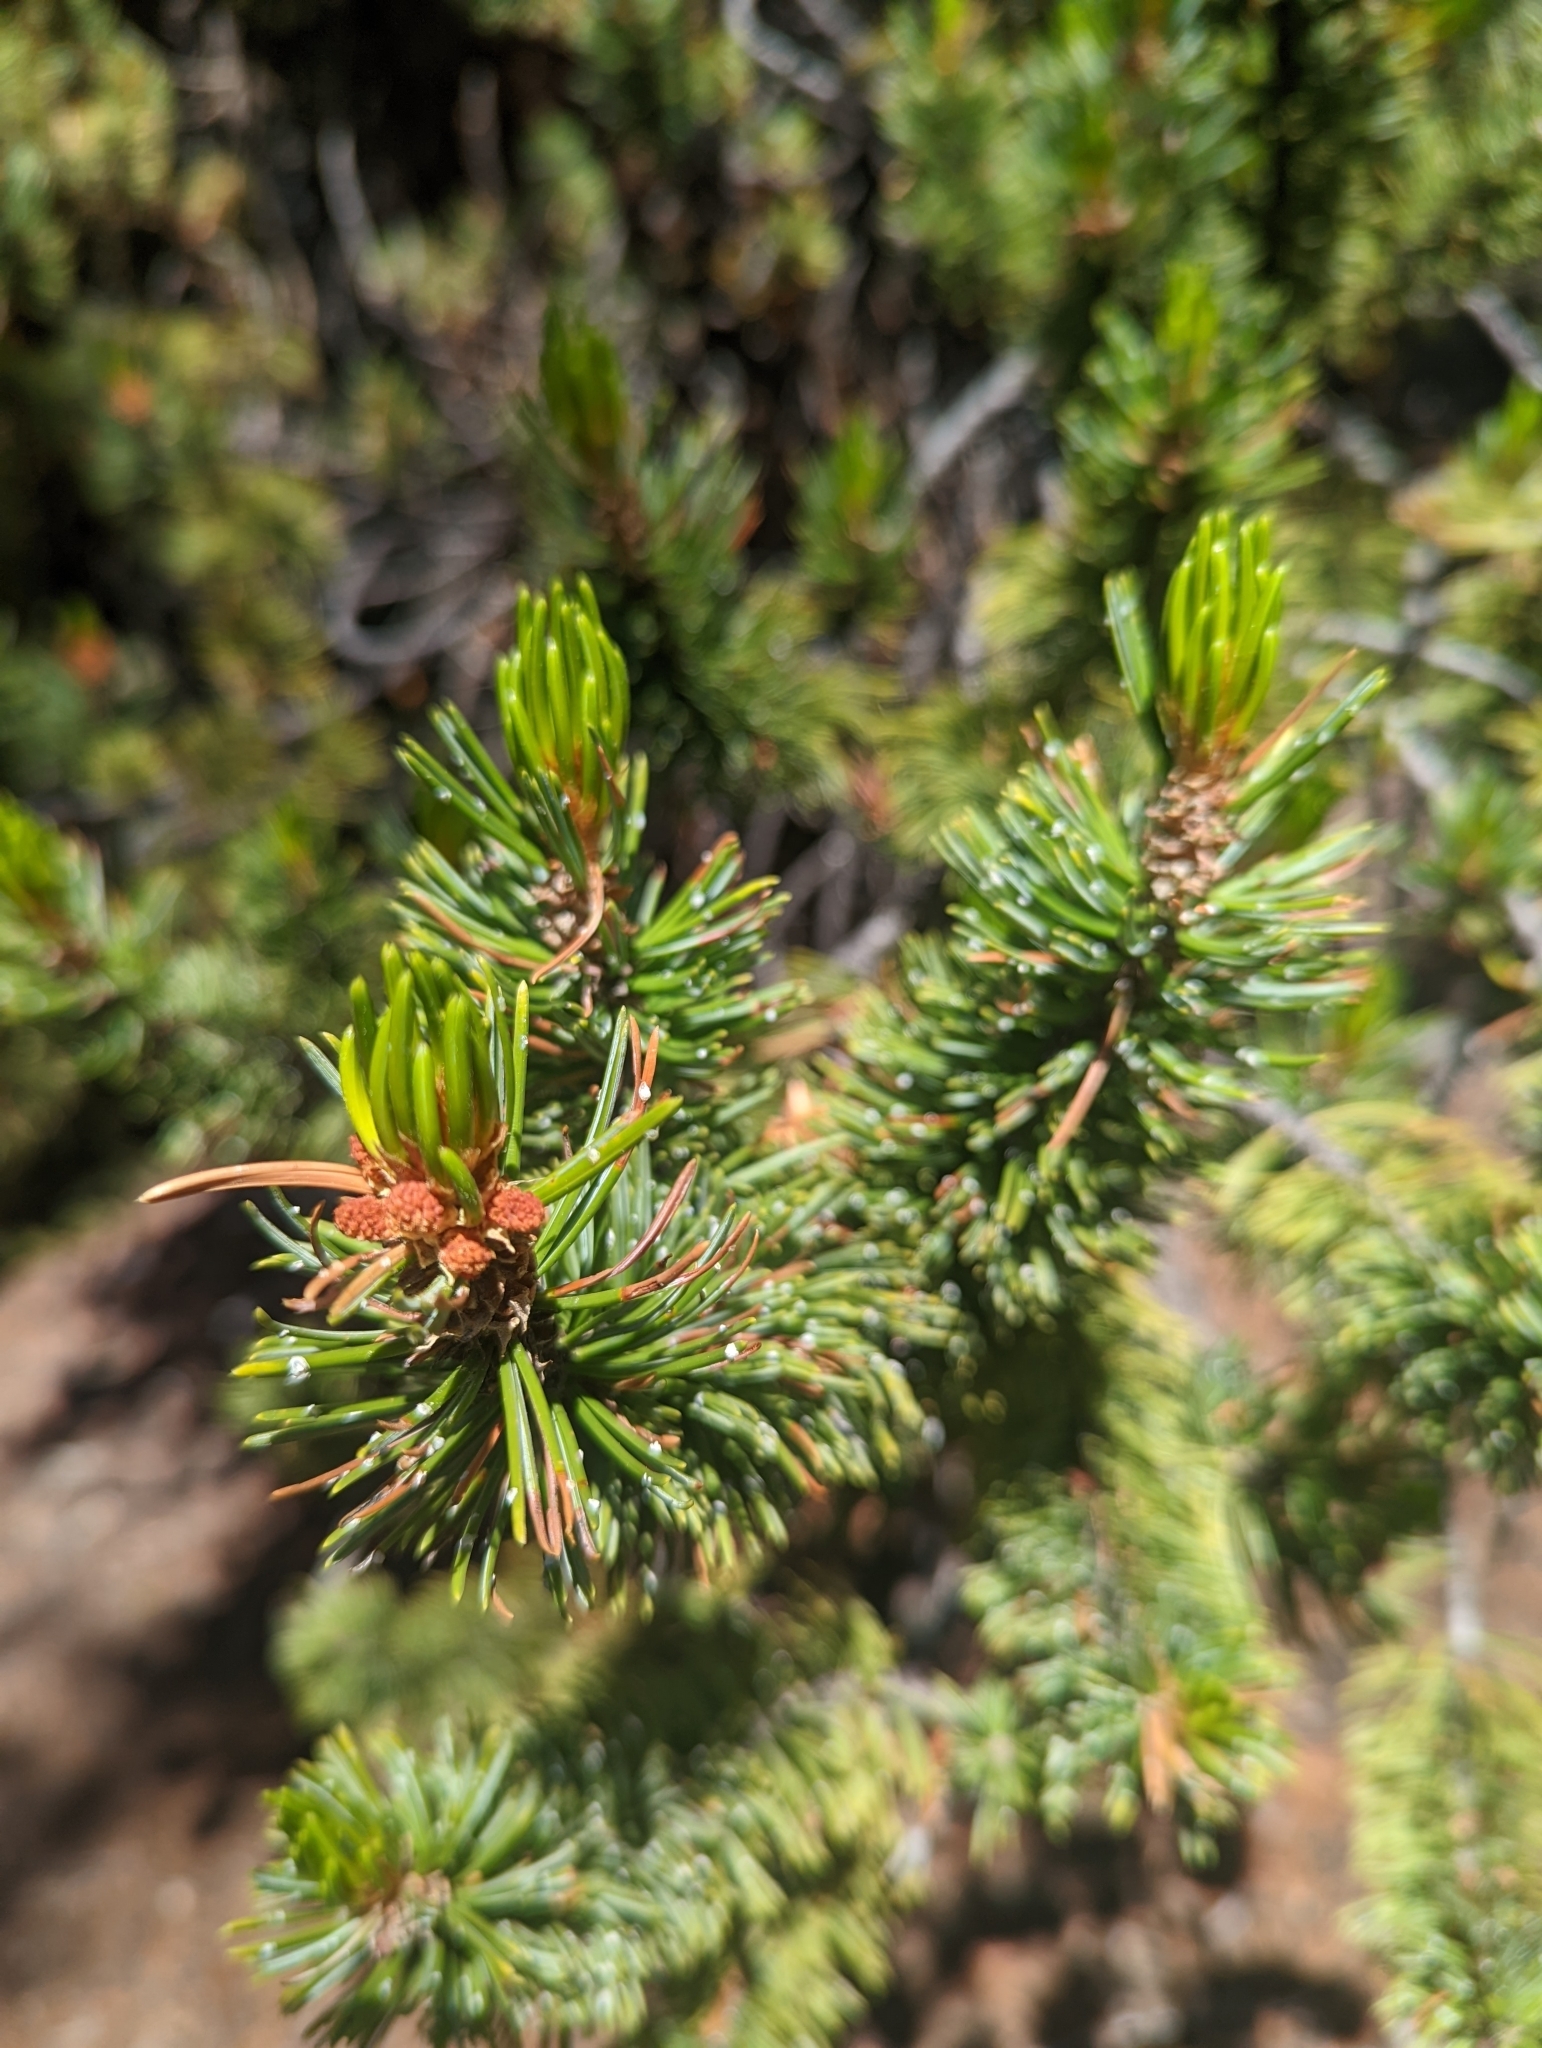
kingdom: Plantae
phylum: Tracheophyta
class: Pinopsida
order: Pinales
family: Pinaceae
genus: Pinus
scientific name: Pinus aristata
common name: Colorado bristlecone pine
